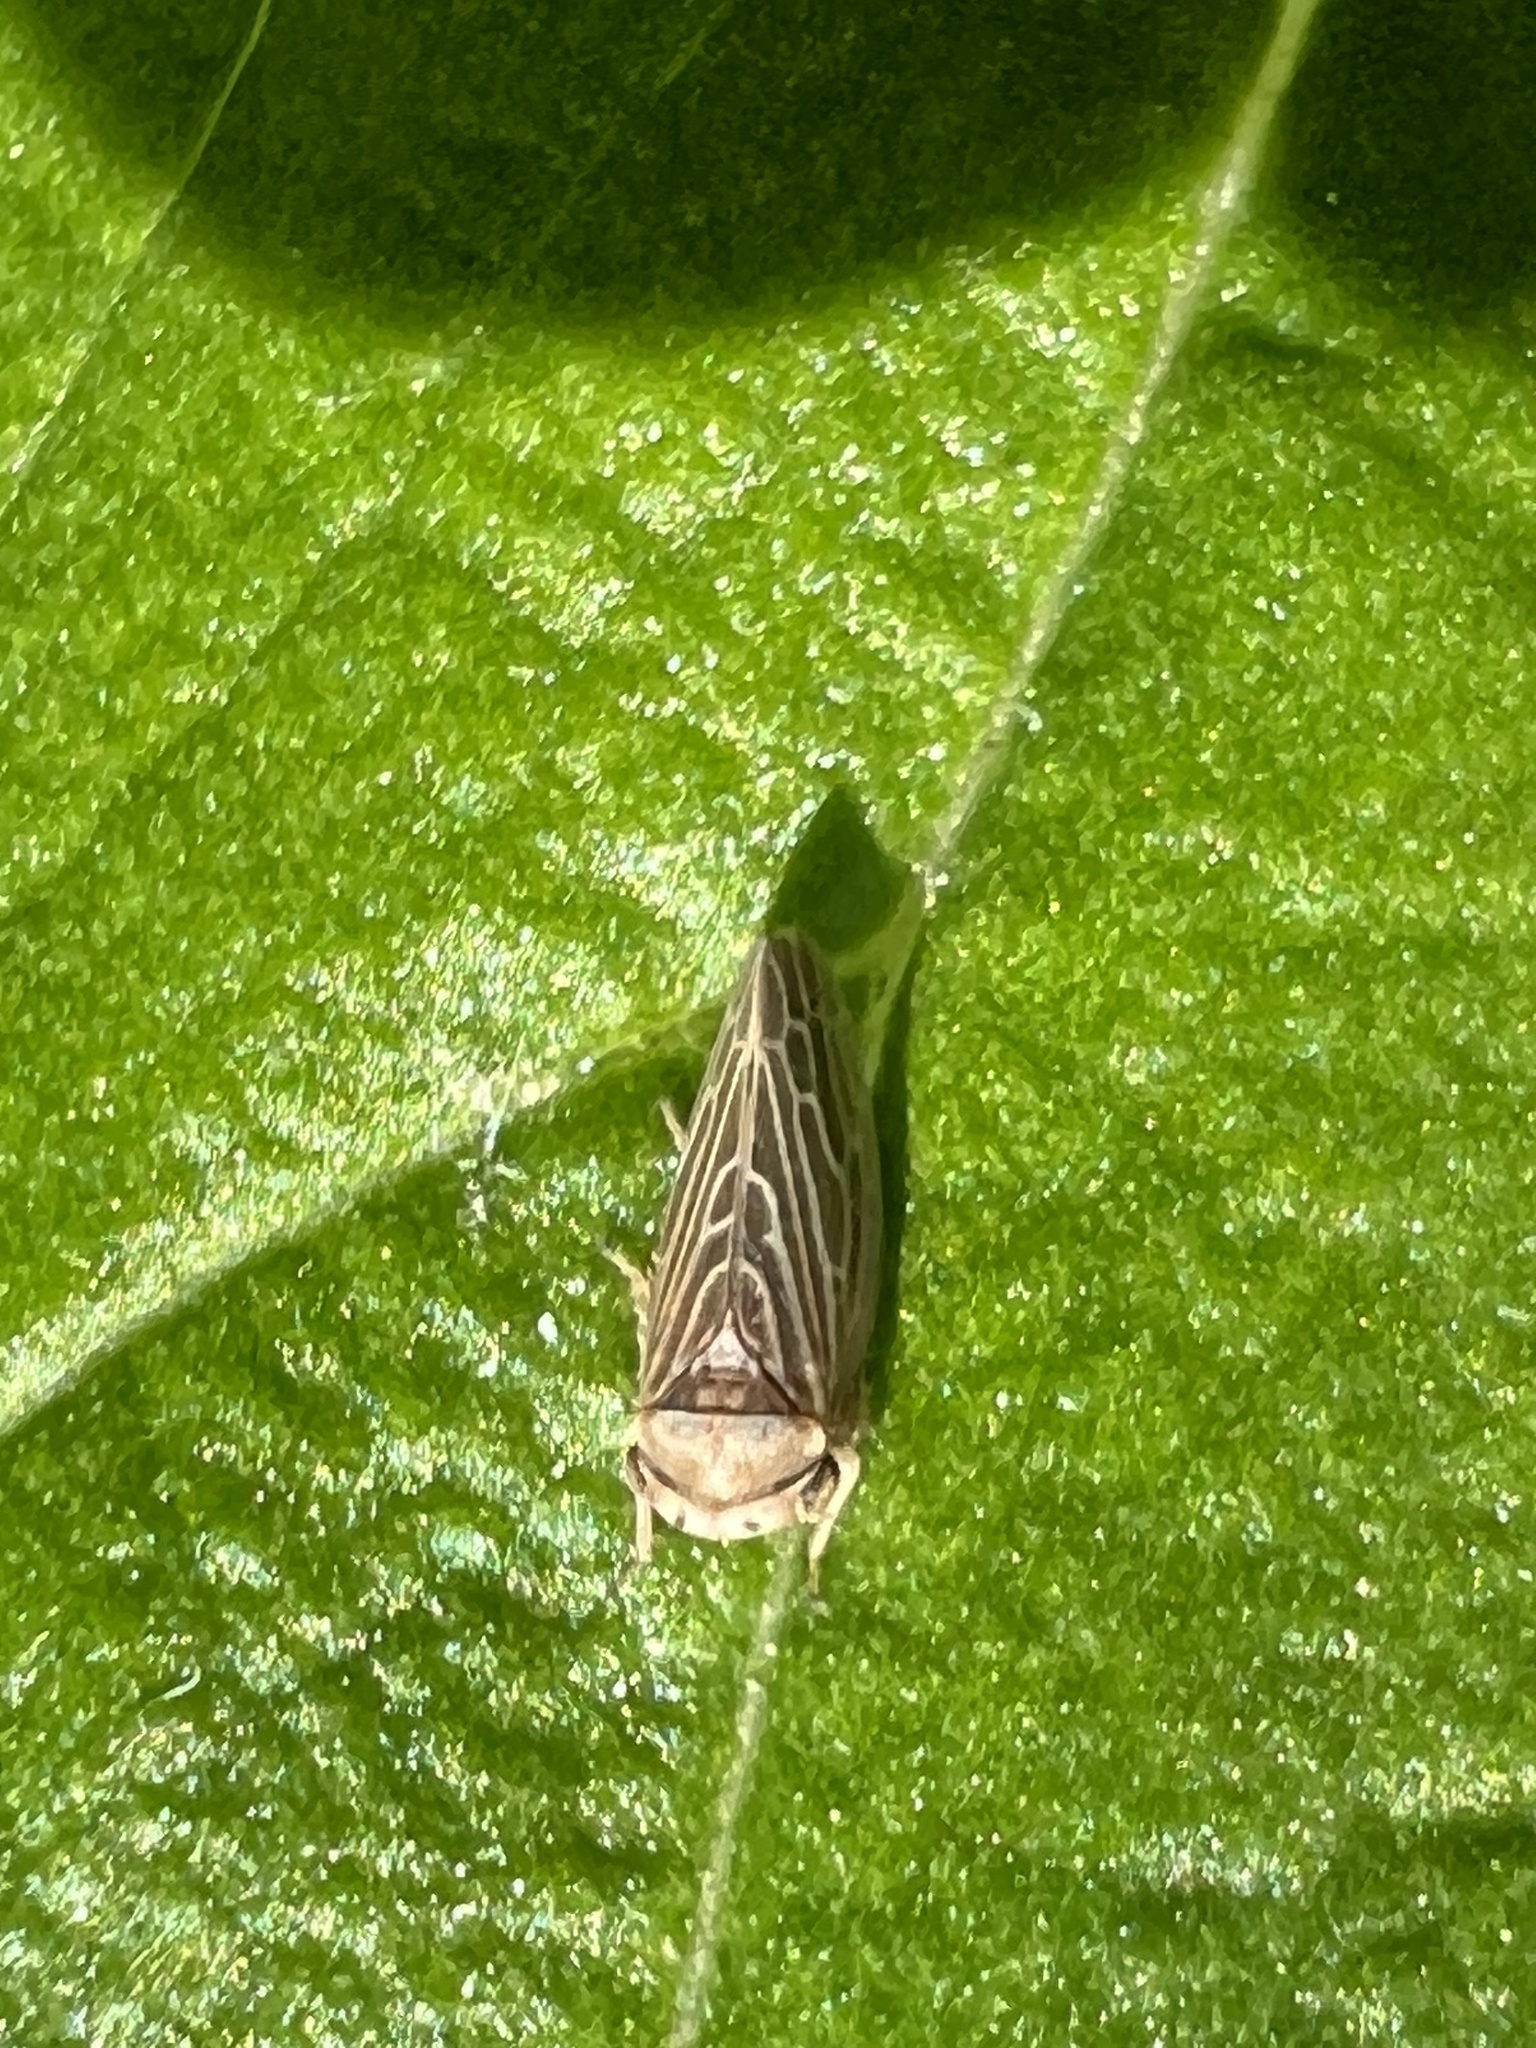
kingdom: Animalia
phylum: Arthropoda
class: Insecta
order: Hemiptera
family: Cicadellidae
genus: Agalliota
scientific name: Agalliota quadripunctata
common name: The four-spotted clover leafhopper
